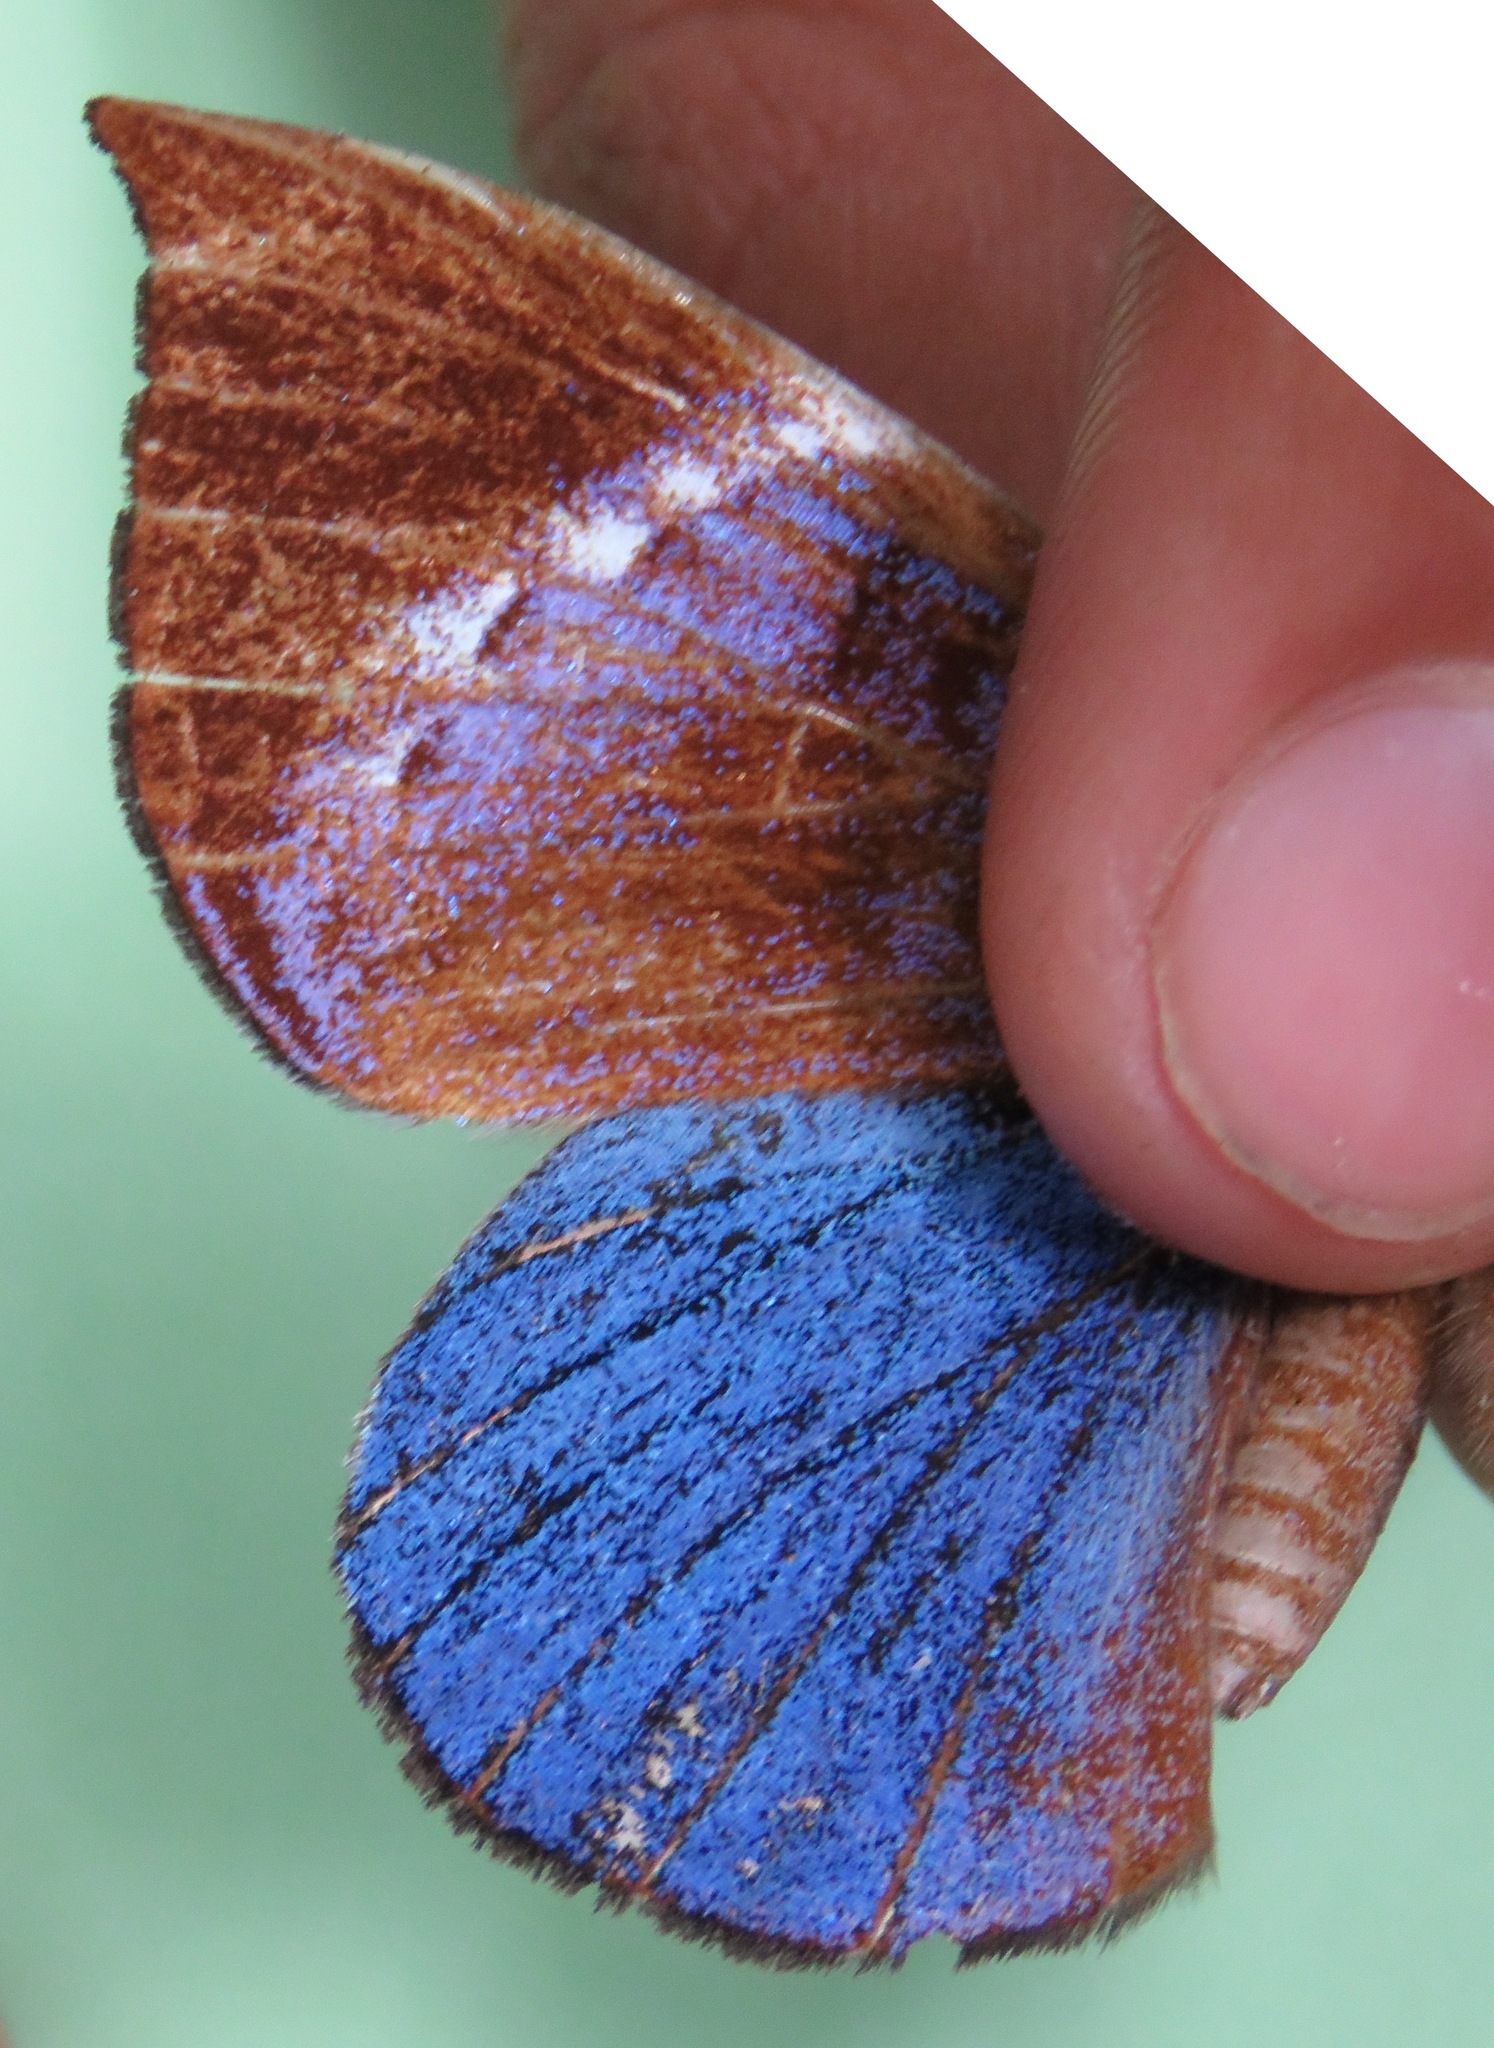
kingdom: Animalia
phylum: Arthropoda
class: Insecta
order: Lepidoptera
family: Riodinidae
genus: Behemothia
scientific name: Behemothia godmanii
